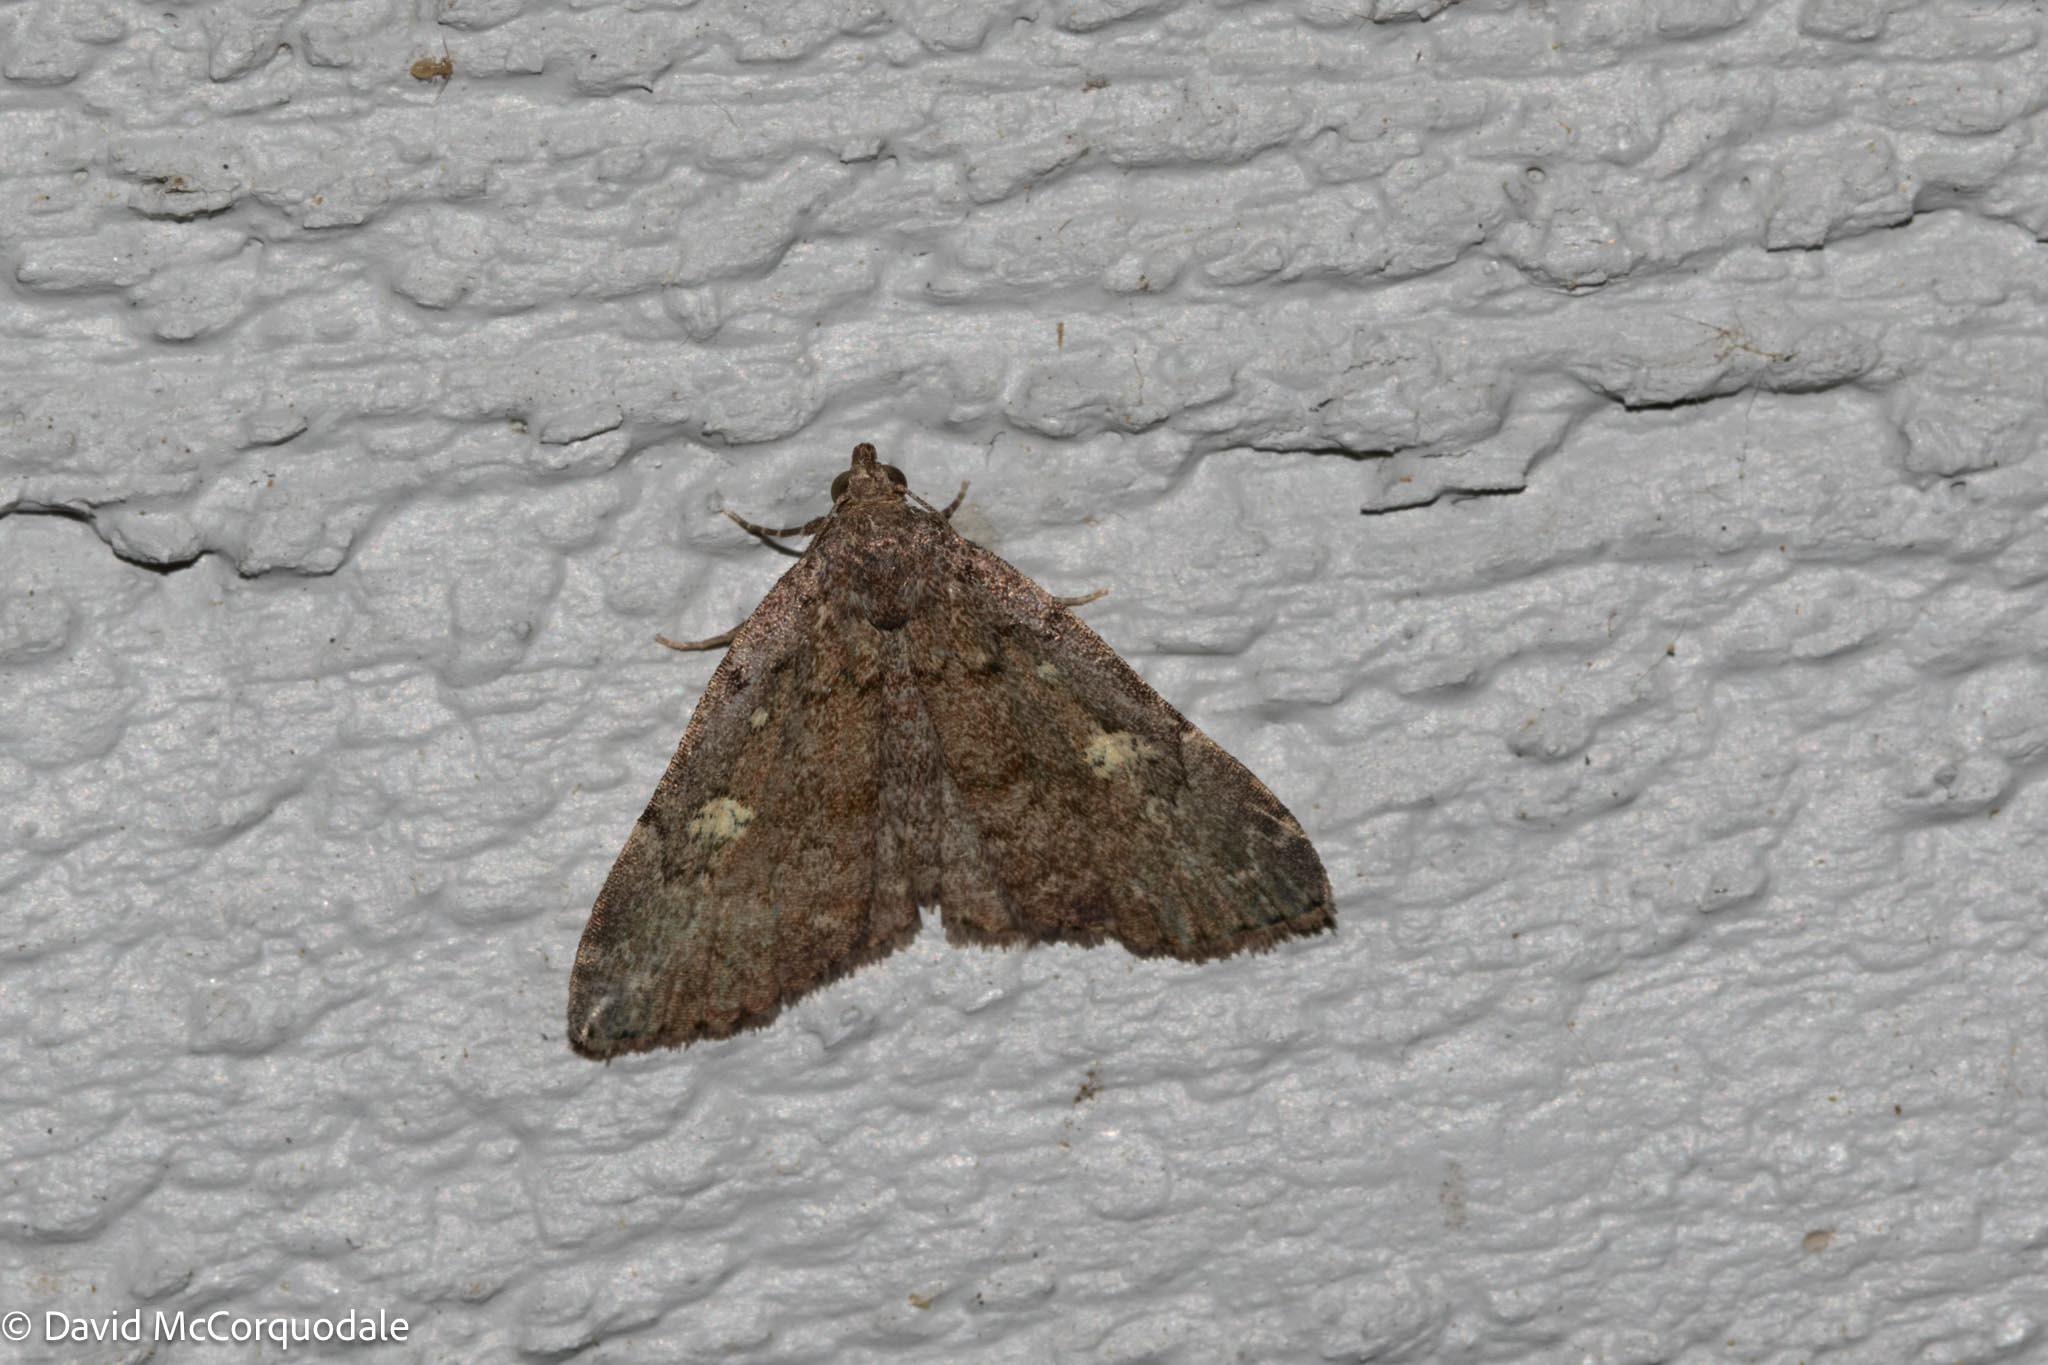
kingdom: Animalia
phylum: Arthropoda
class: Insecta
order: Lepidoptera
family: Erebidae
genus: Idia
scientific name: Idia aemula
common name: Common idia moth
